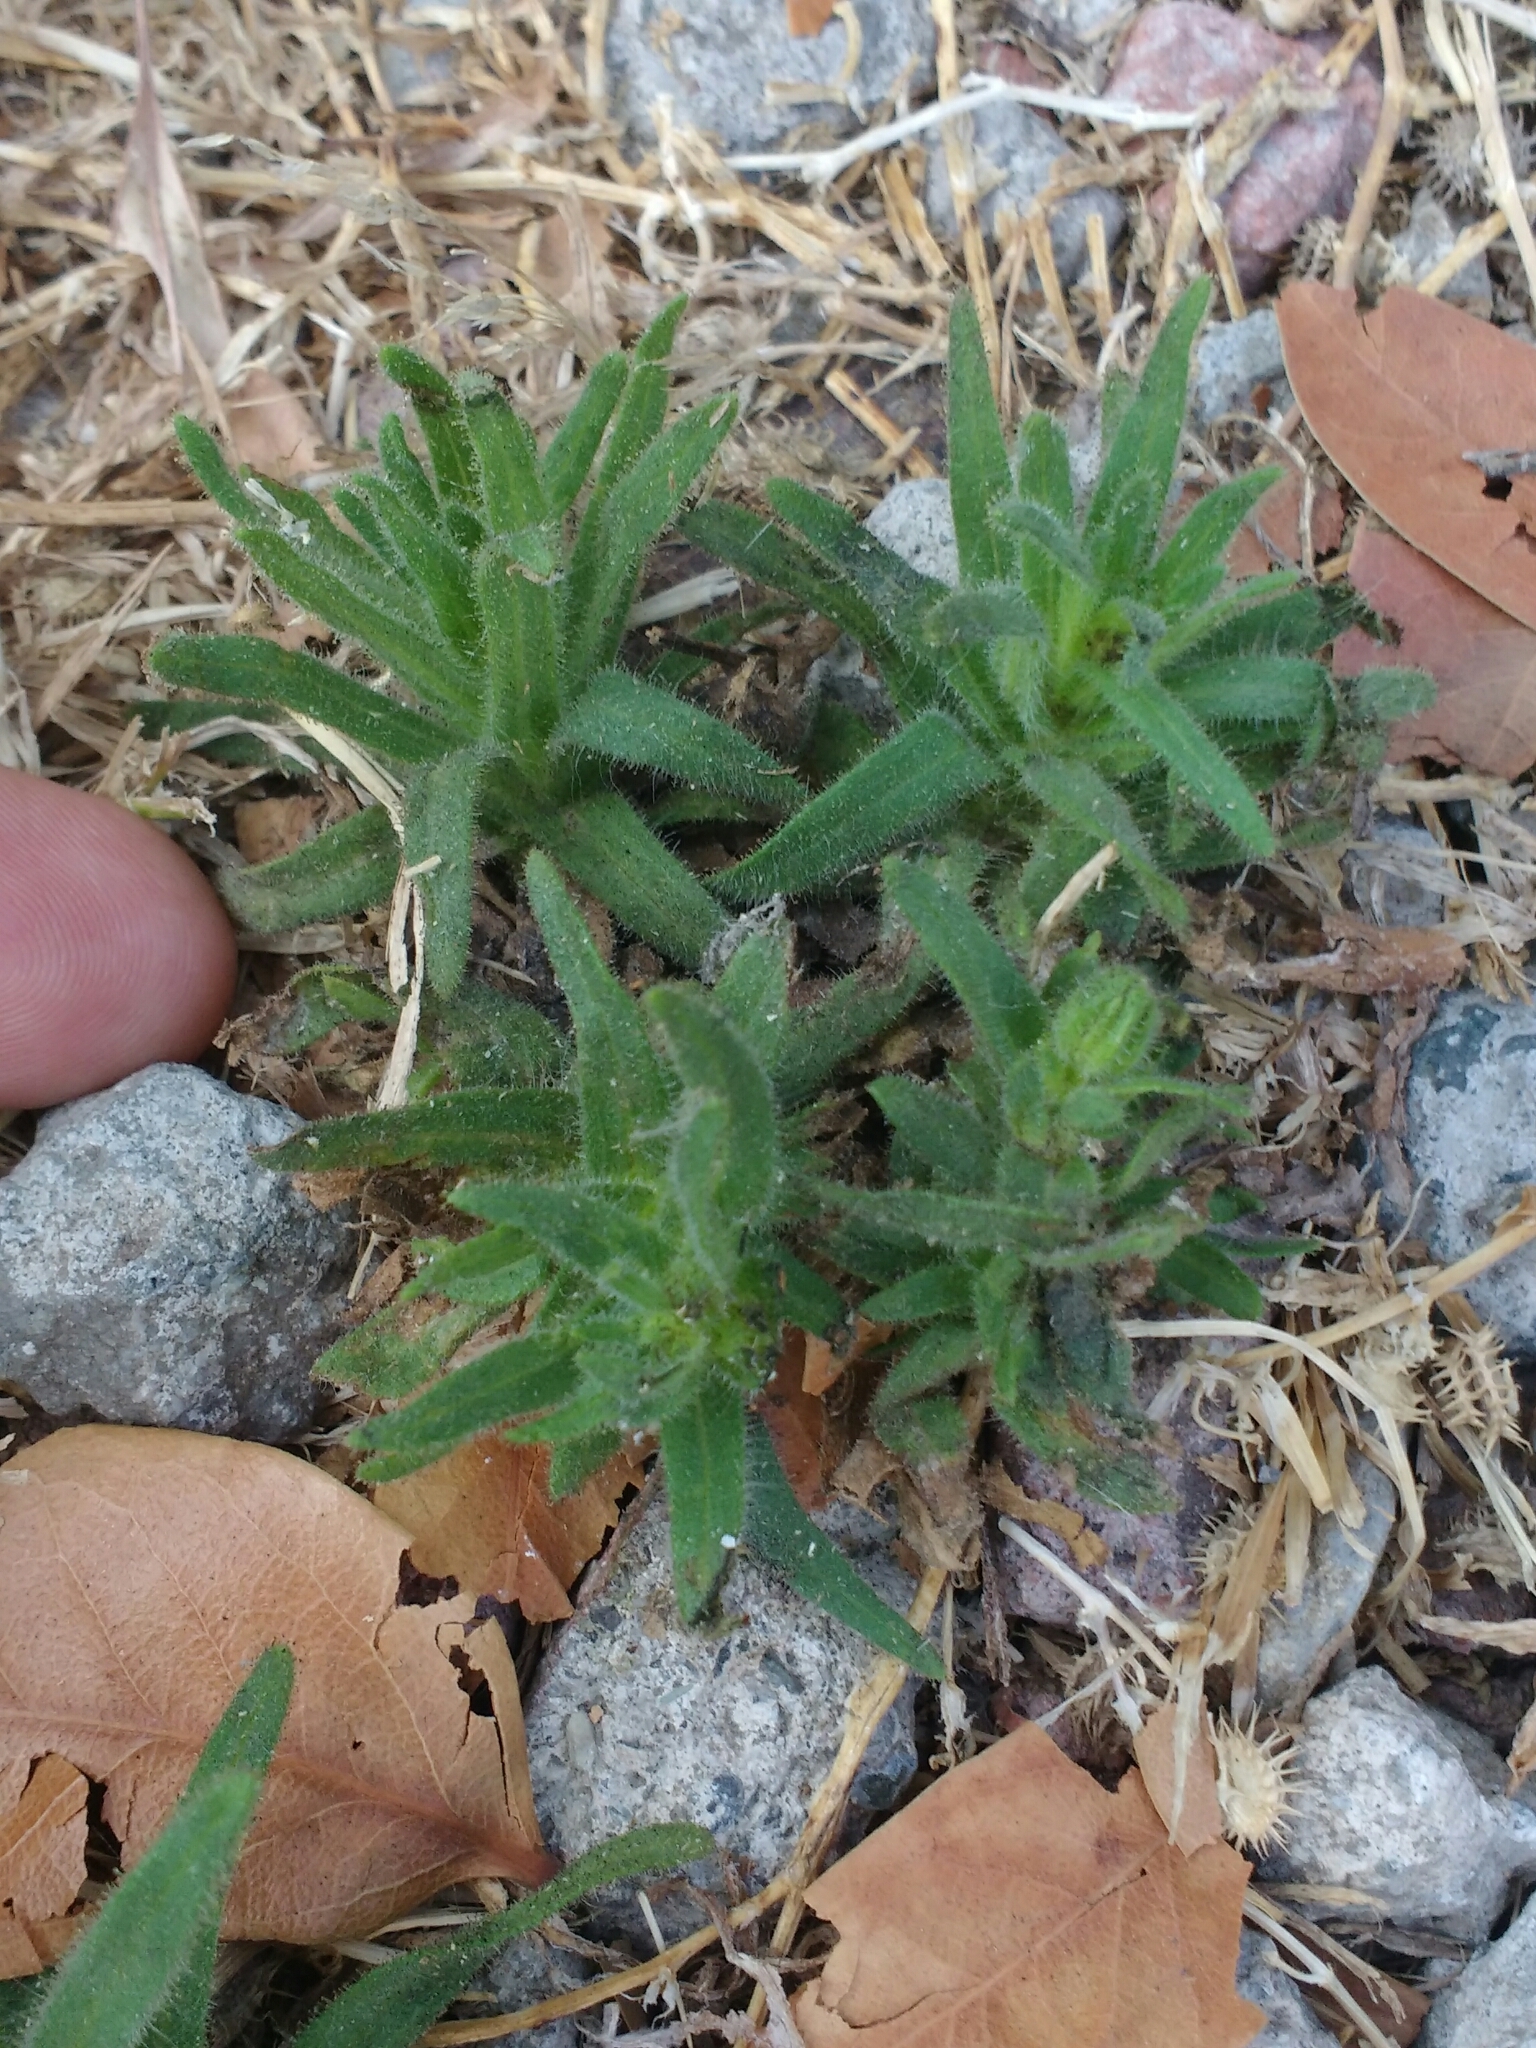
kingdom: Plantae
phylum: Tracheophyta
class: Magnoliopsida
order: Asterales
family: Asteraceae
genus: Madia
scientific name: Madia sativa
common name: Coast tarweed
